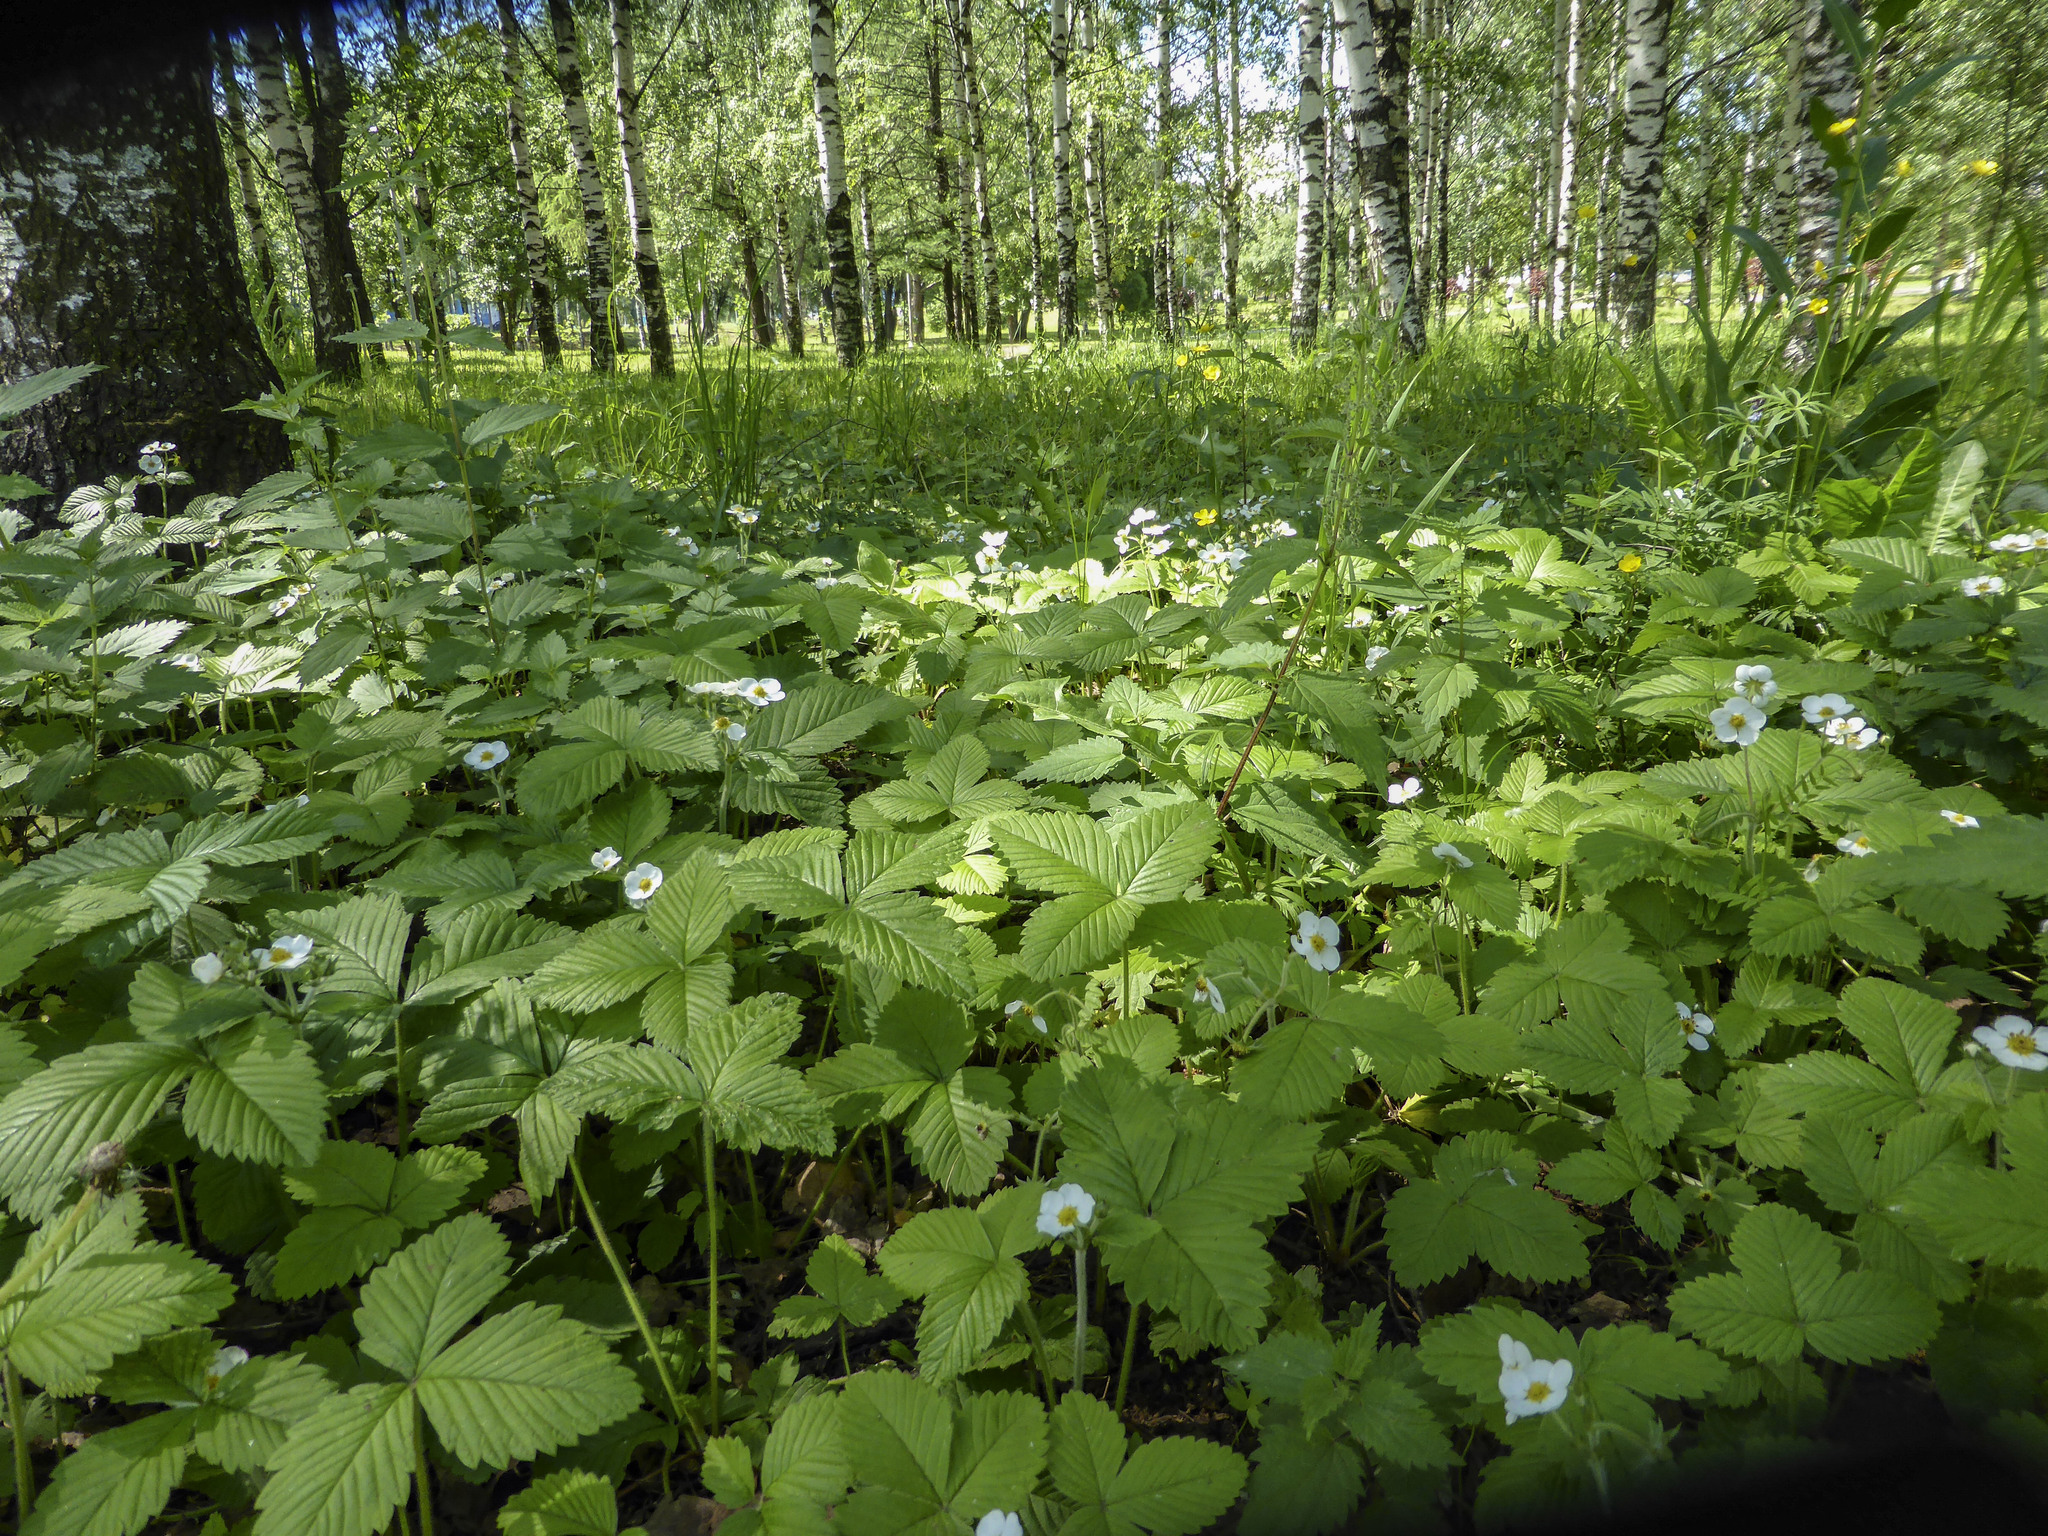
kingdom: Plantae
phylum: Tracheophyta
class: Magnoliopsida
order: Rosales
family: Rosaceae
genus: Fragaria
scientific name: Fragaria moschata
